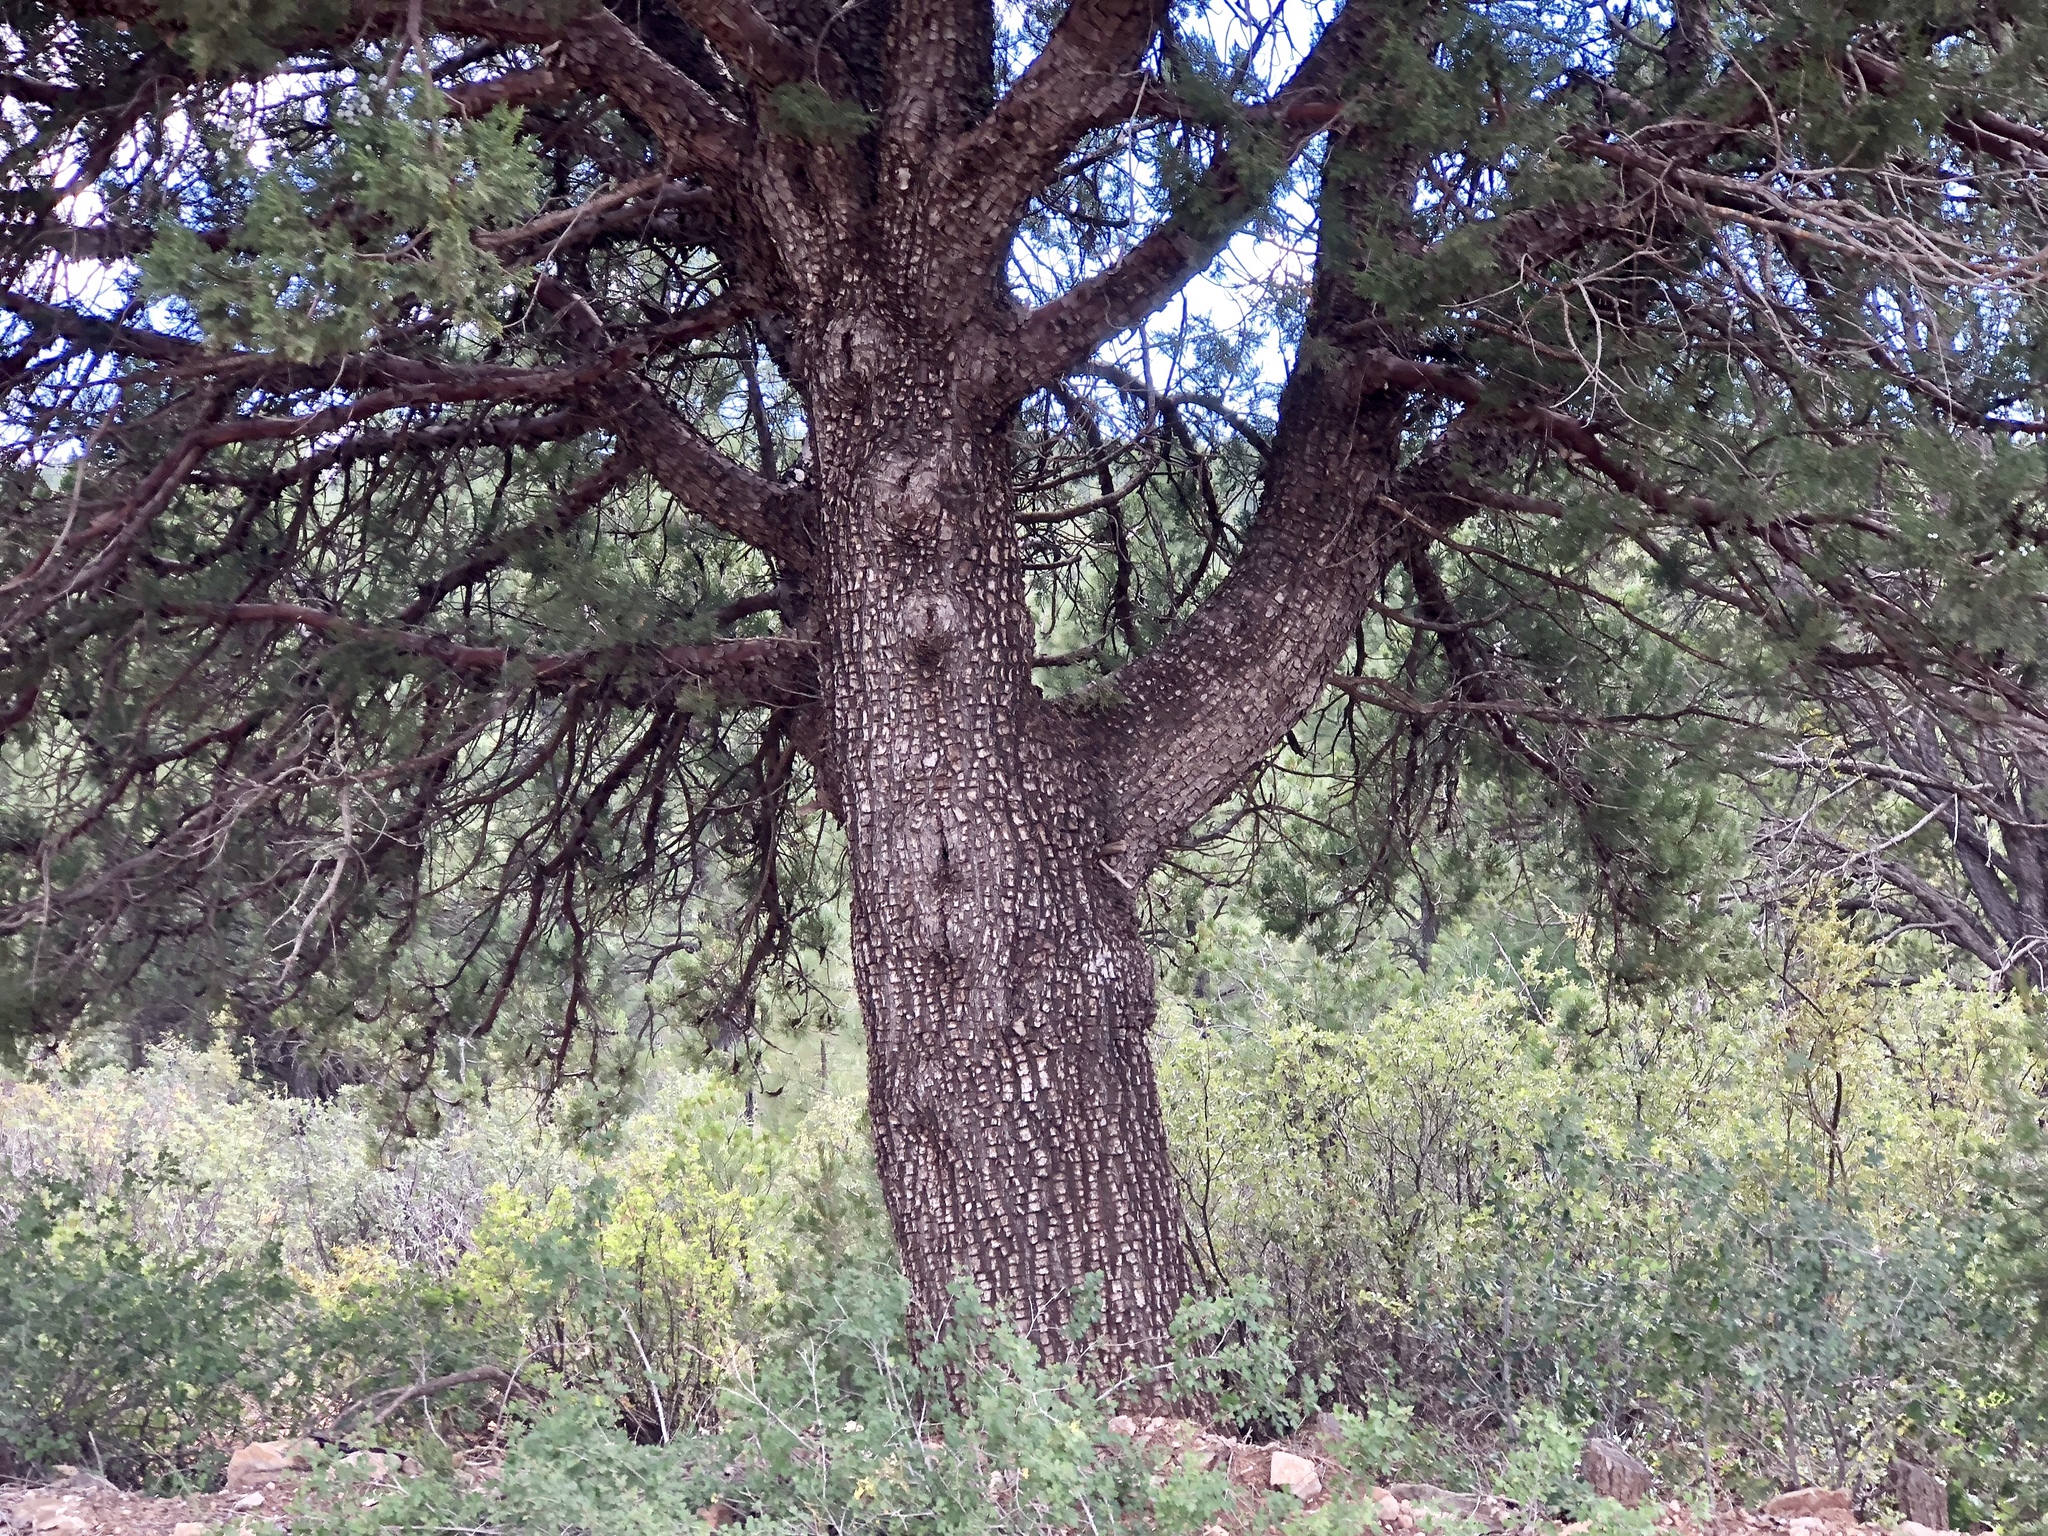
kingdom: Plantae
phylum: Tracheophyta
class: Pinopsida
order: Pinales
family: Cupressaceae
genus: Juniperus
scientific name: Juniperus deppeana
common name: Alligator juniper
